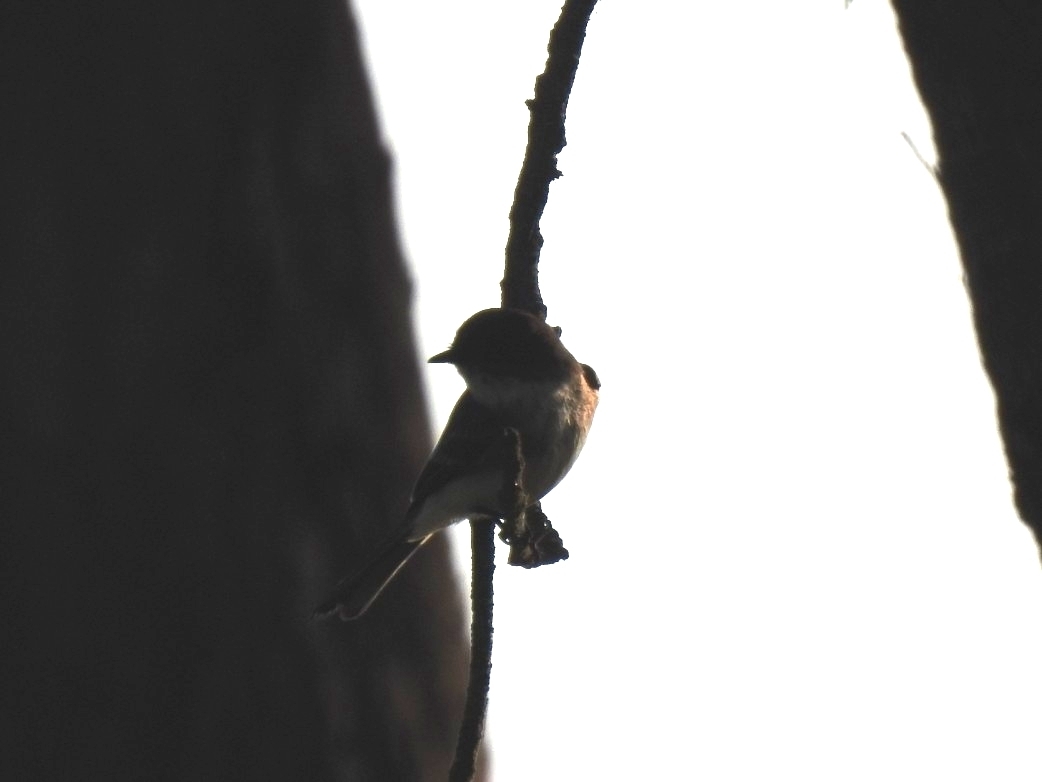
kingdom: Animalia
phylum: Chordata
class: Aves
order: Passeriformes
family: Tyrannidae
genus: Sayornis
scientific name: Sayornis phoebe
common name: Eastern phoebe
